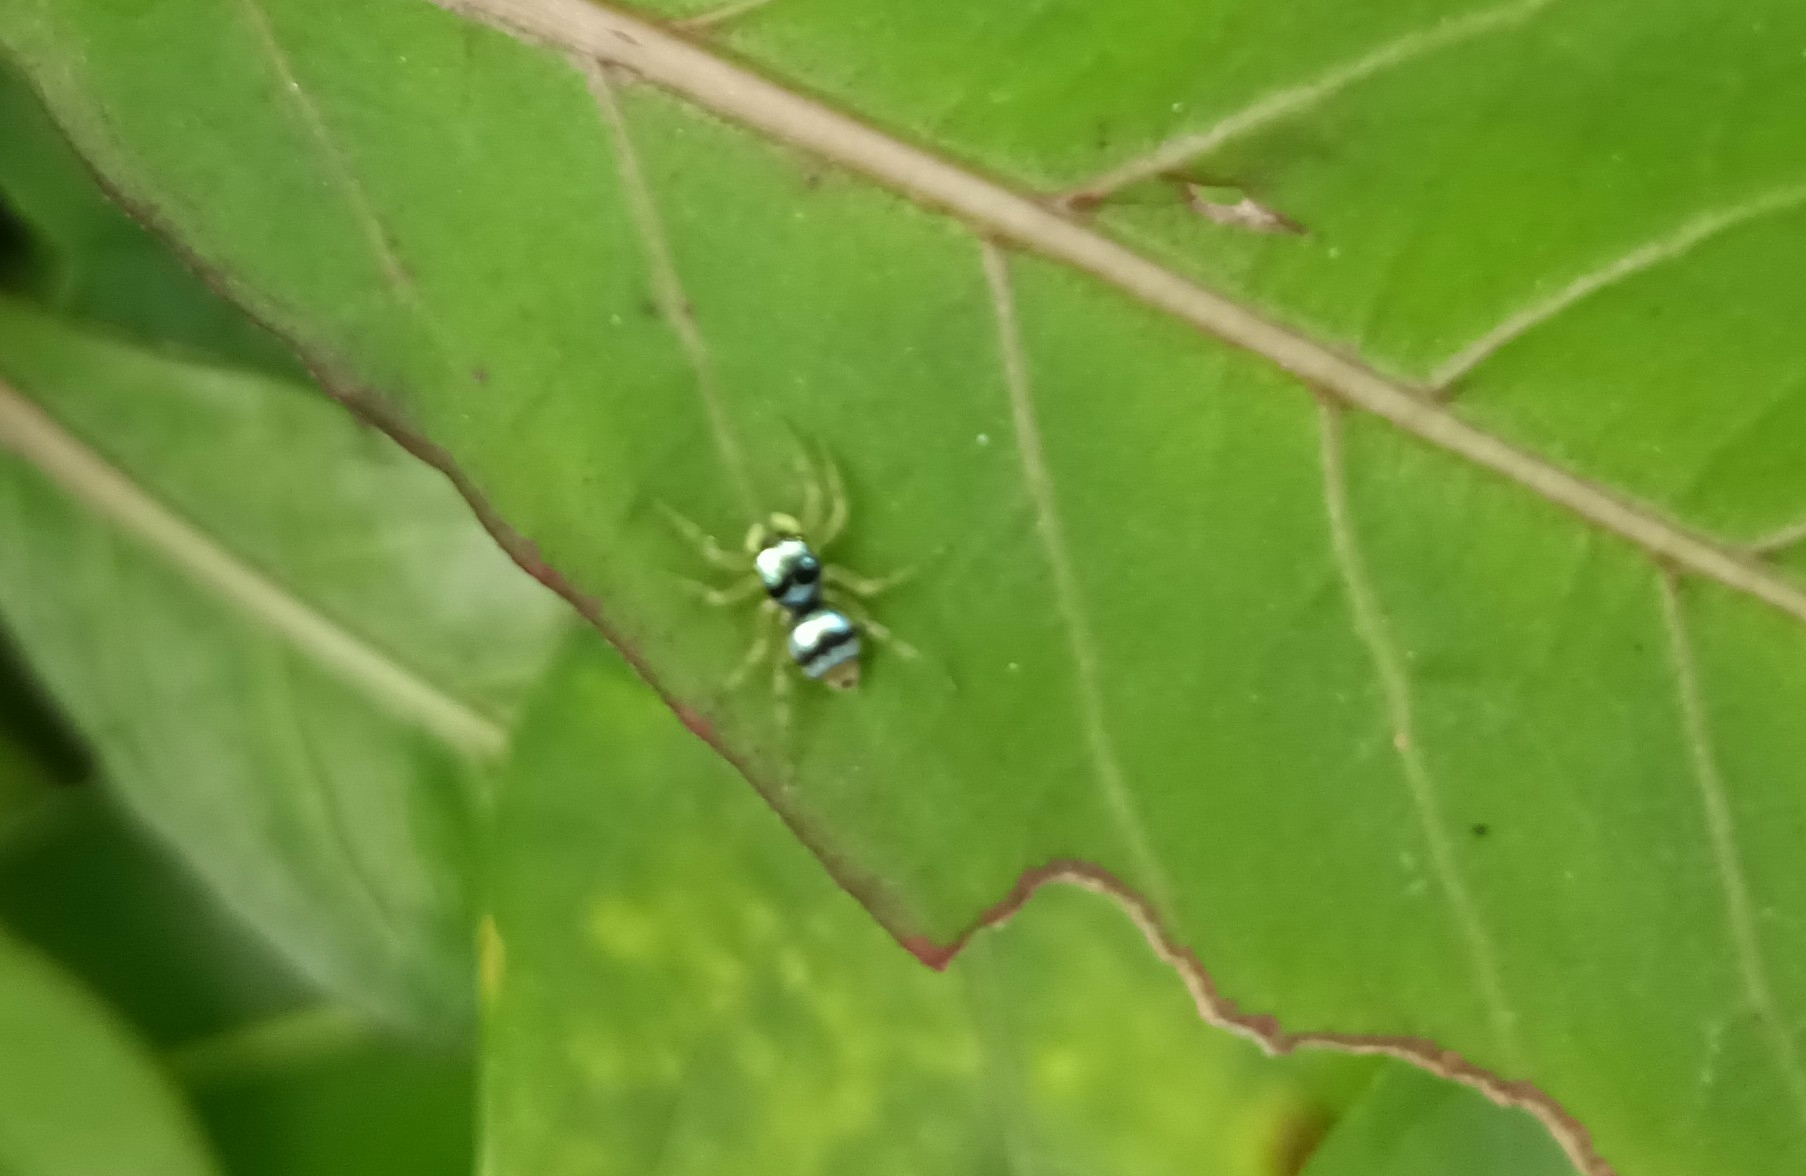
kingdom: Animalia
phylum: Arthropoda
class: Arachnida
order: Araneae
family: Salticidae
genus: Phintella
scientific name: Phintella vittata
